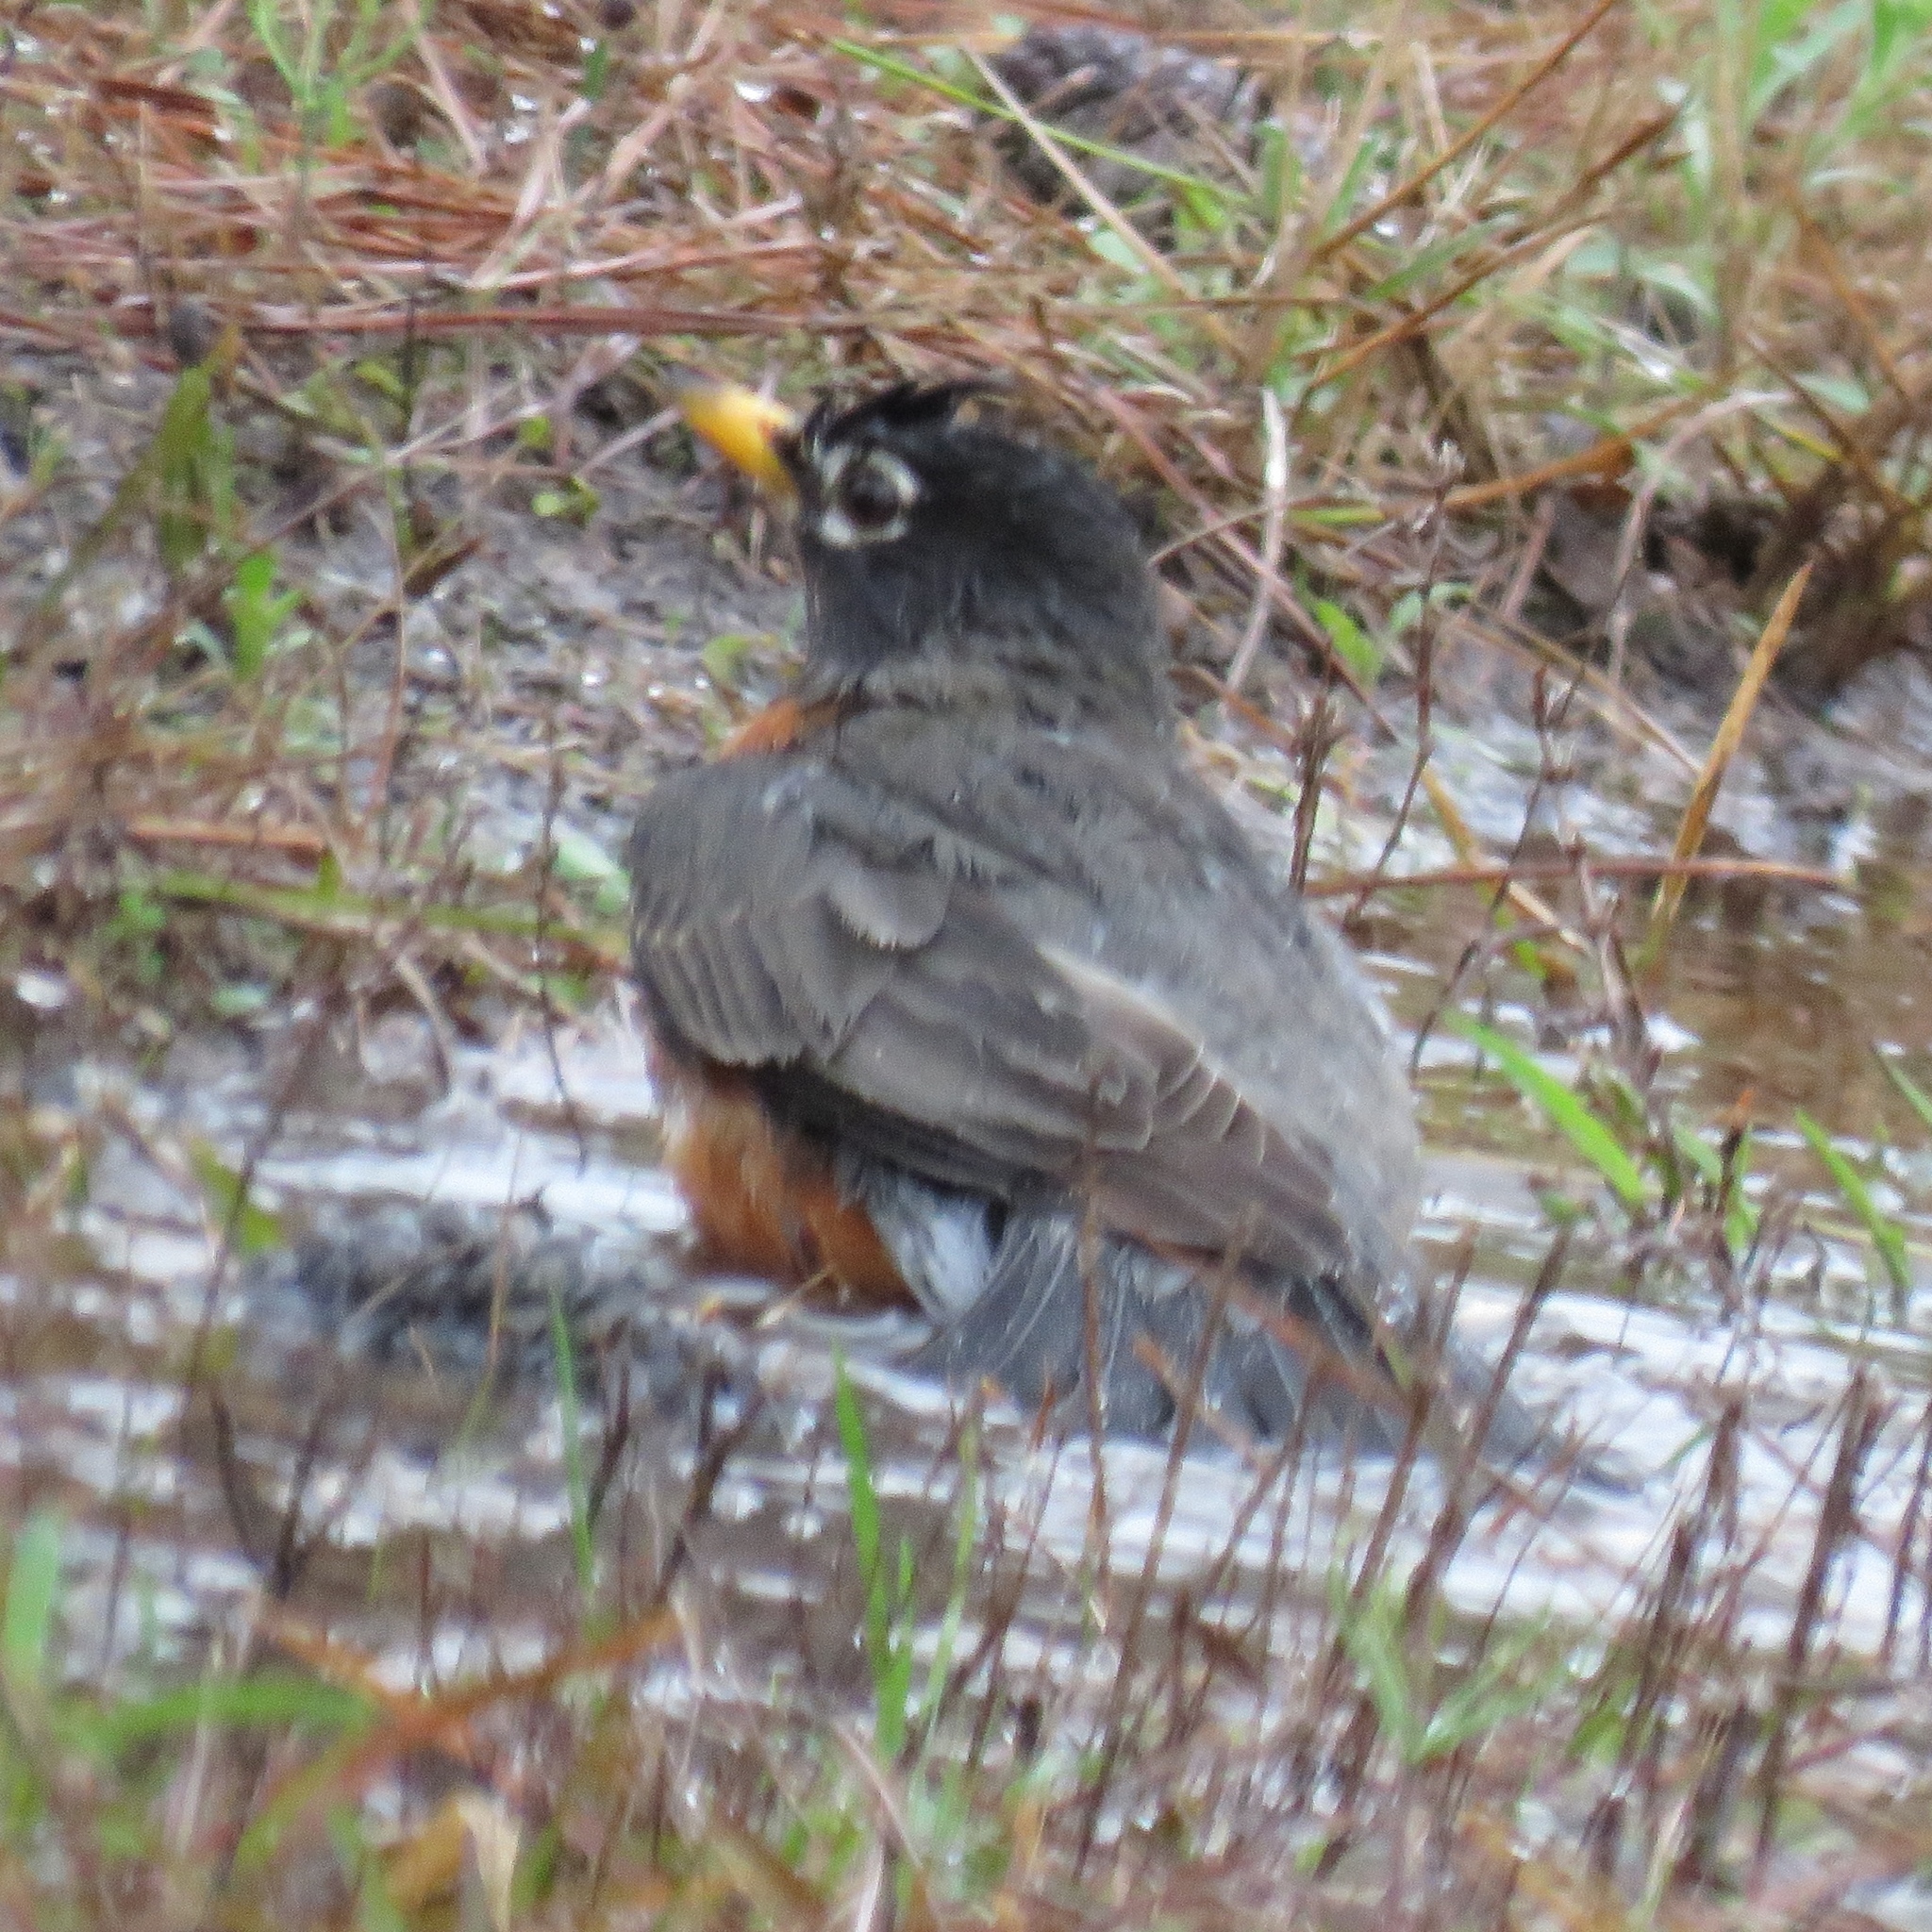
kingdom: Animalia
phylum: Chordata
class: Aves
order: Passeriformes
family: Turdidae
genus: Turdus
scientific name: Turdus migratorius
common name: American robin
